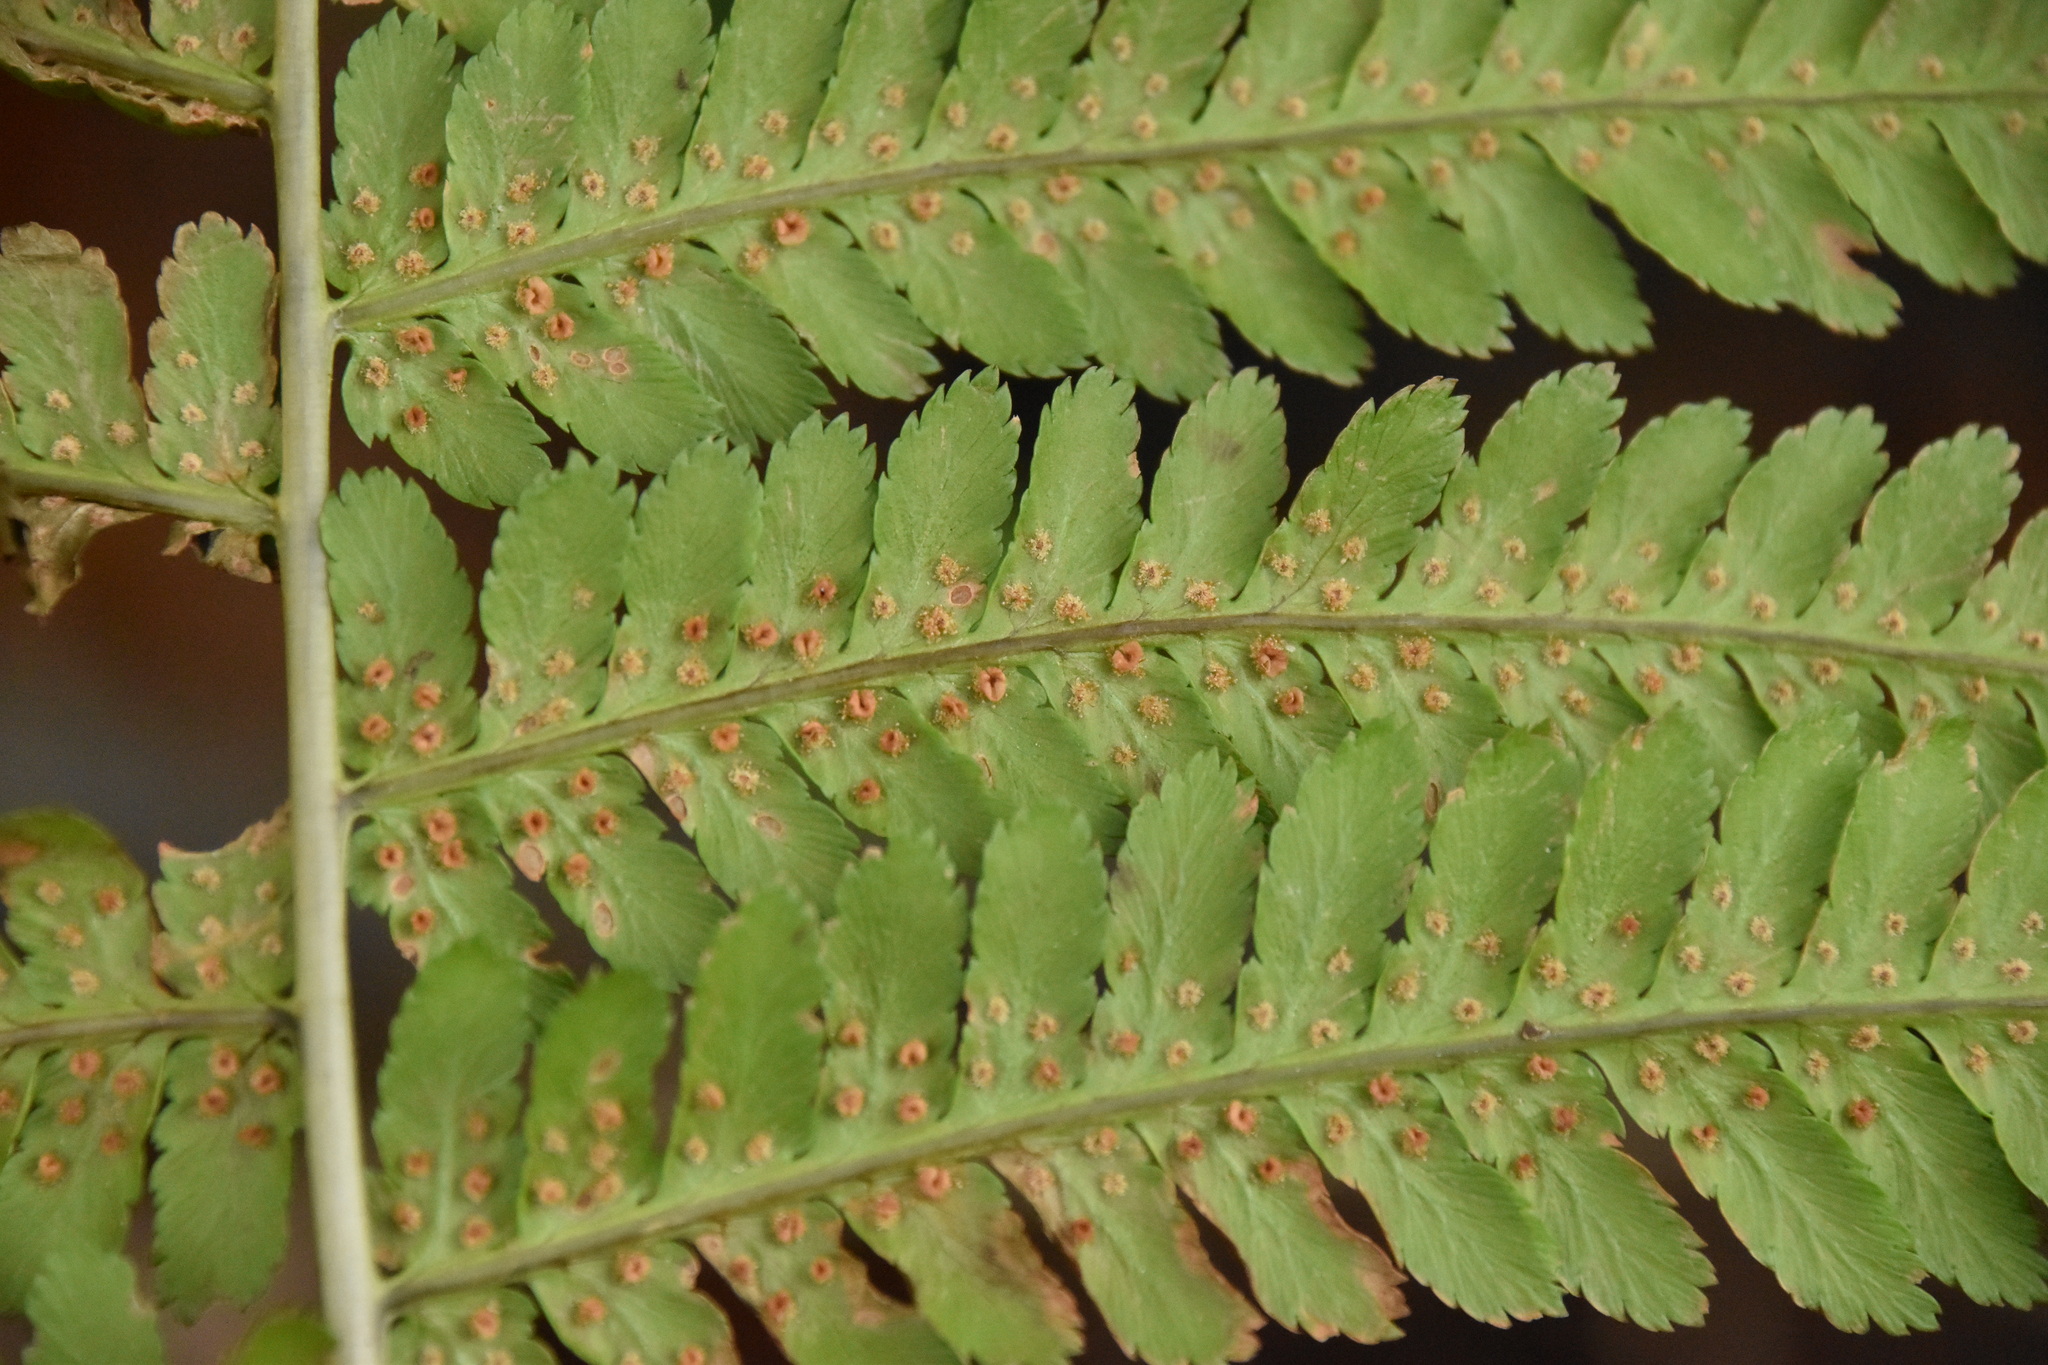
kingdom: Plantae
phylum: Tracheophyta
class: Polypodiopsida
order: Polypodiales
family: Dryopteridaceae
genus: Dryopteris
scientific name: Dryopteris filix-mas
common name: Male fern
